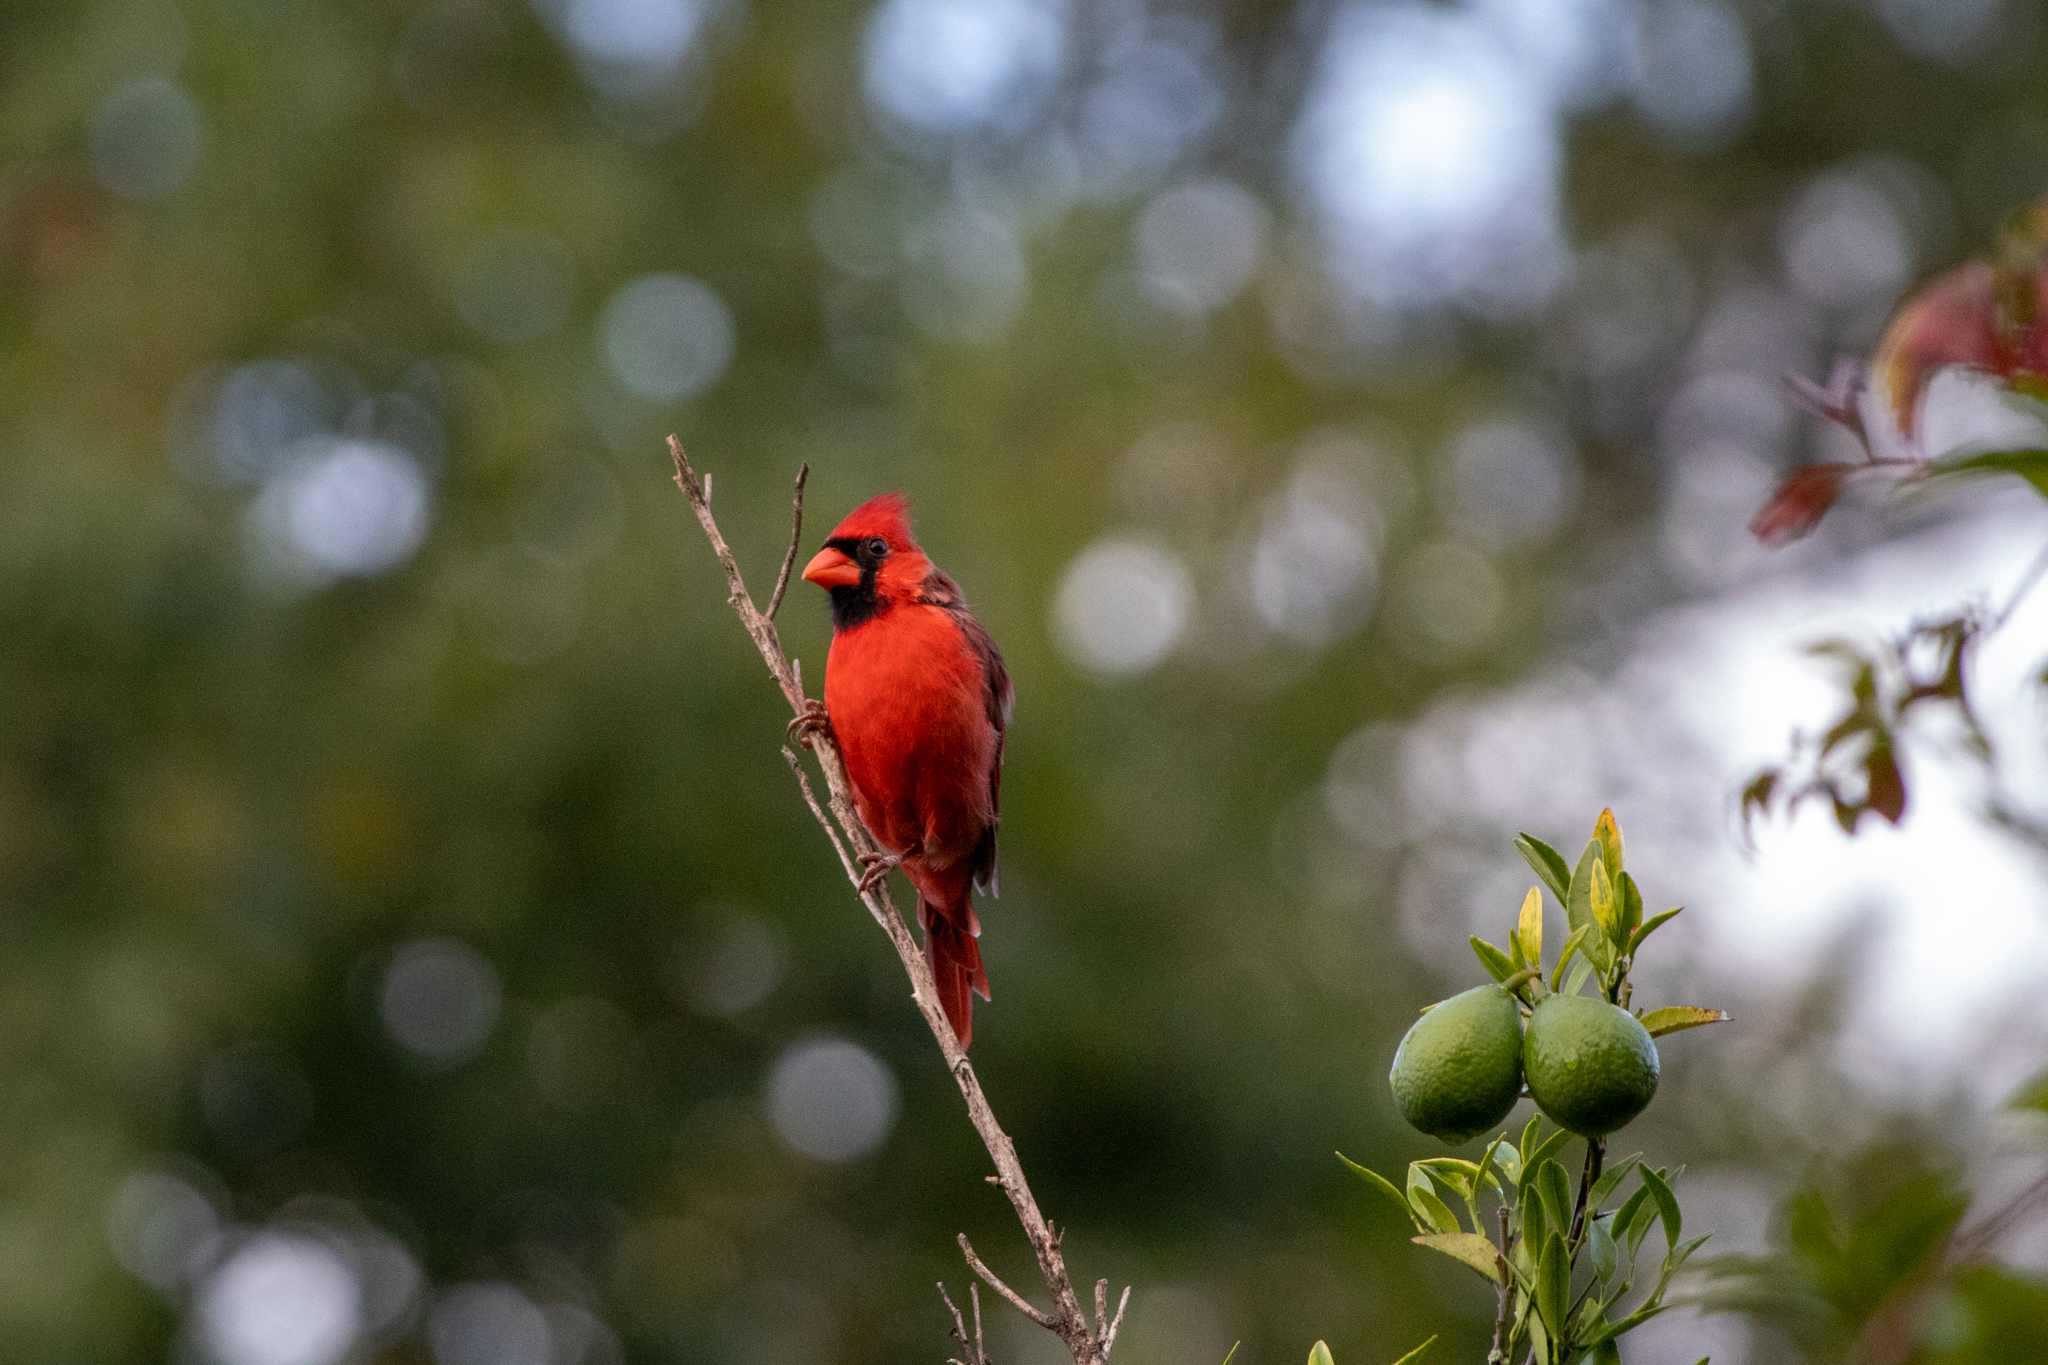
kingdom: Animalia
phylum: Chordata
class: Aves
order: Passeriformes
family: Cardinalidae
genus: Cardinalis
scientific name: Cardinalis cardinalis
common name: Northern cardinal
